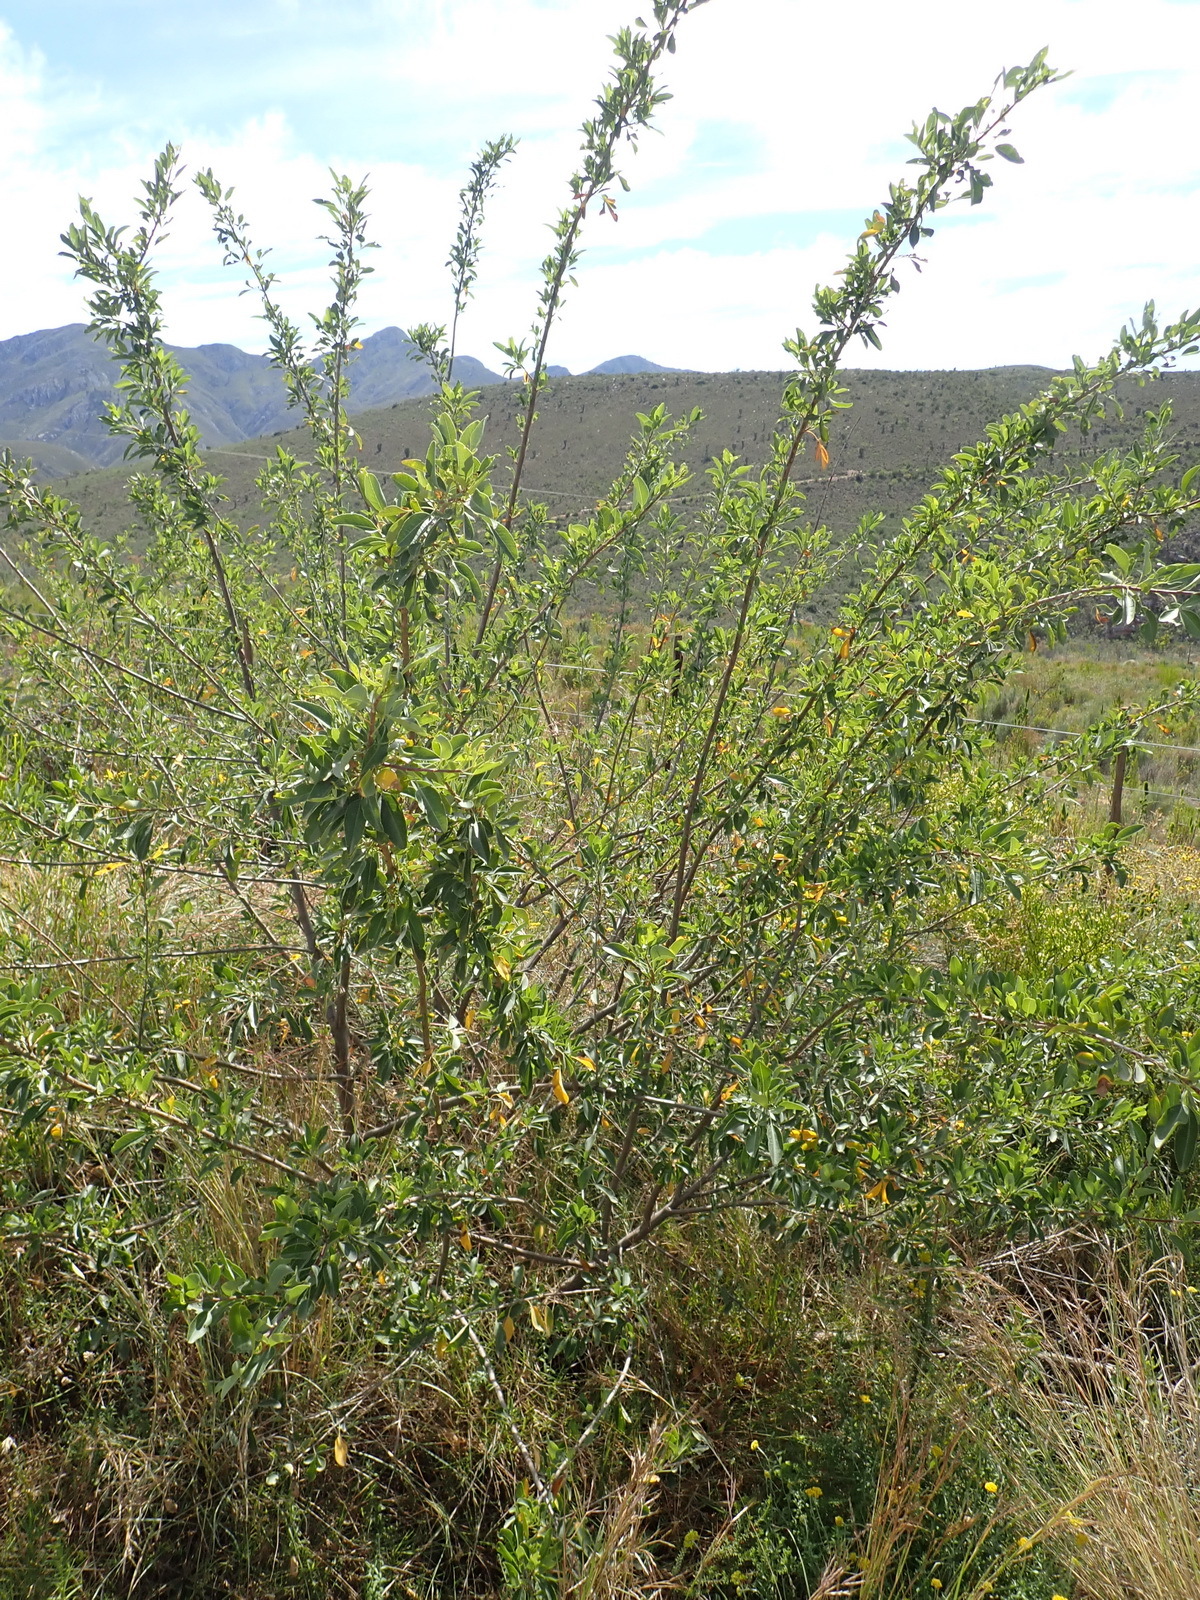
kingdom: Plantae
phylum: Tracheophyta
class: Magnoliopsida
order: Sapindales
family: Anacardiaceae
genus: Searsia
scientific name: Searsia chirindensis
